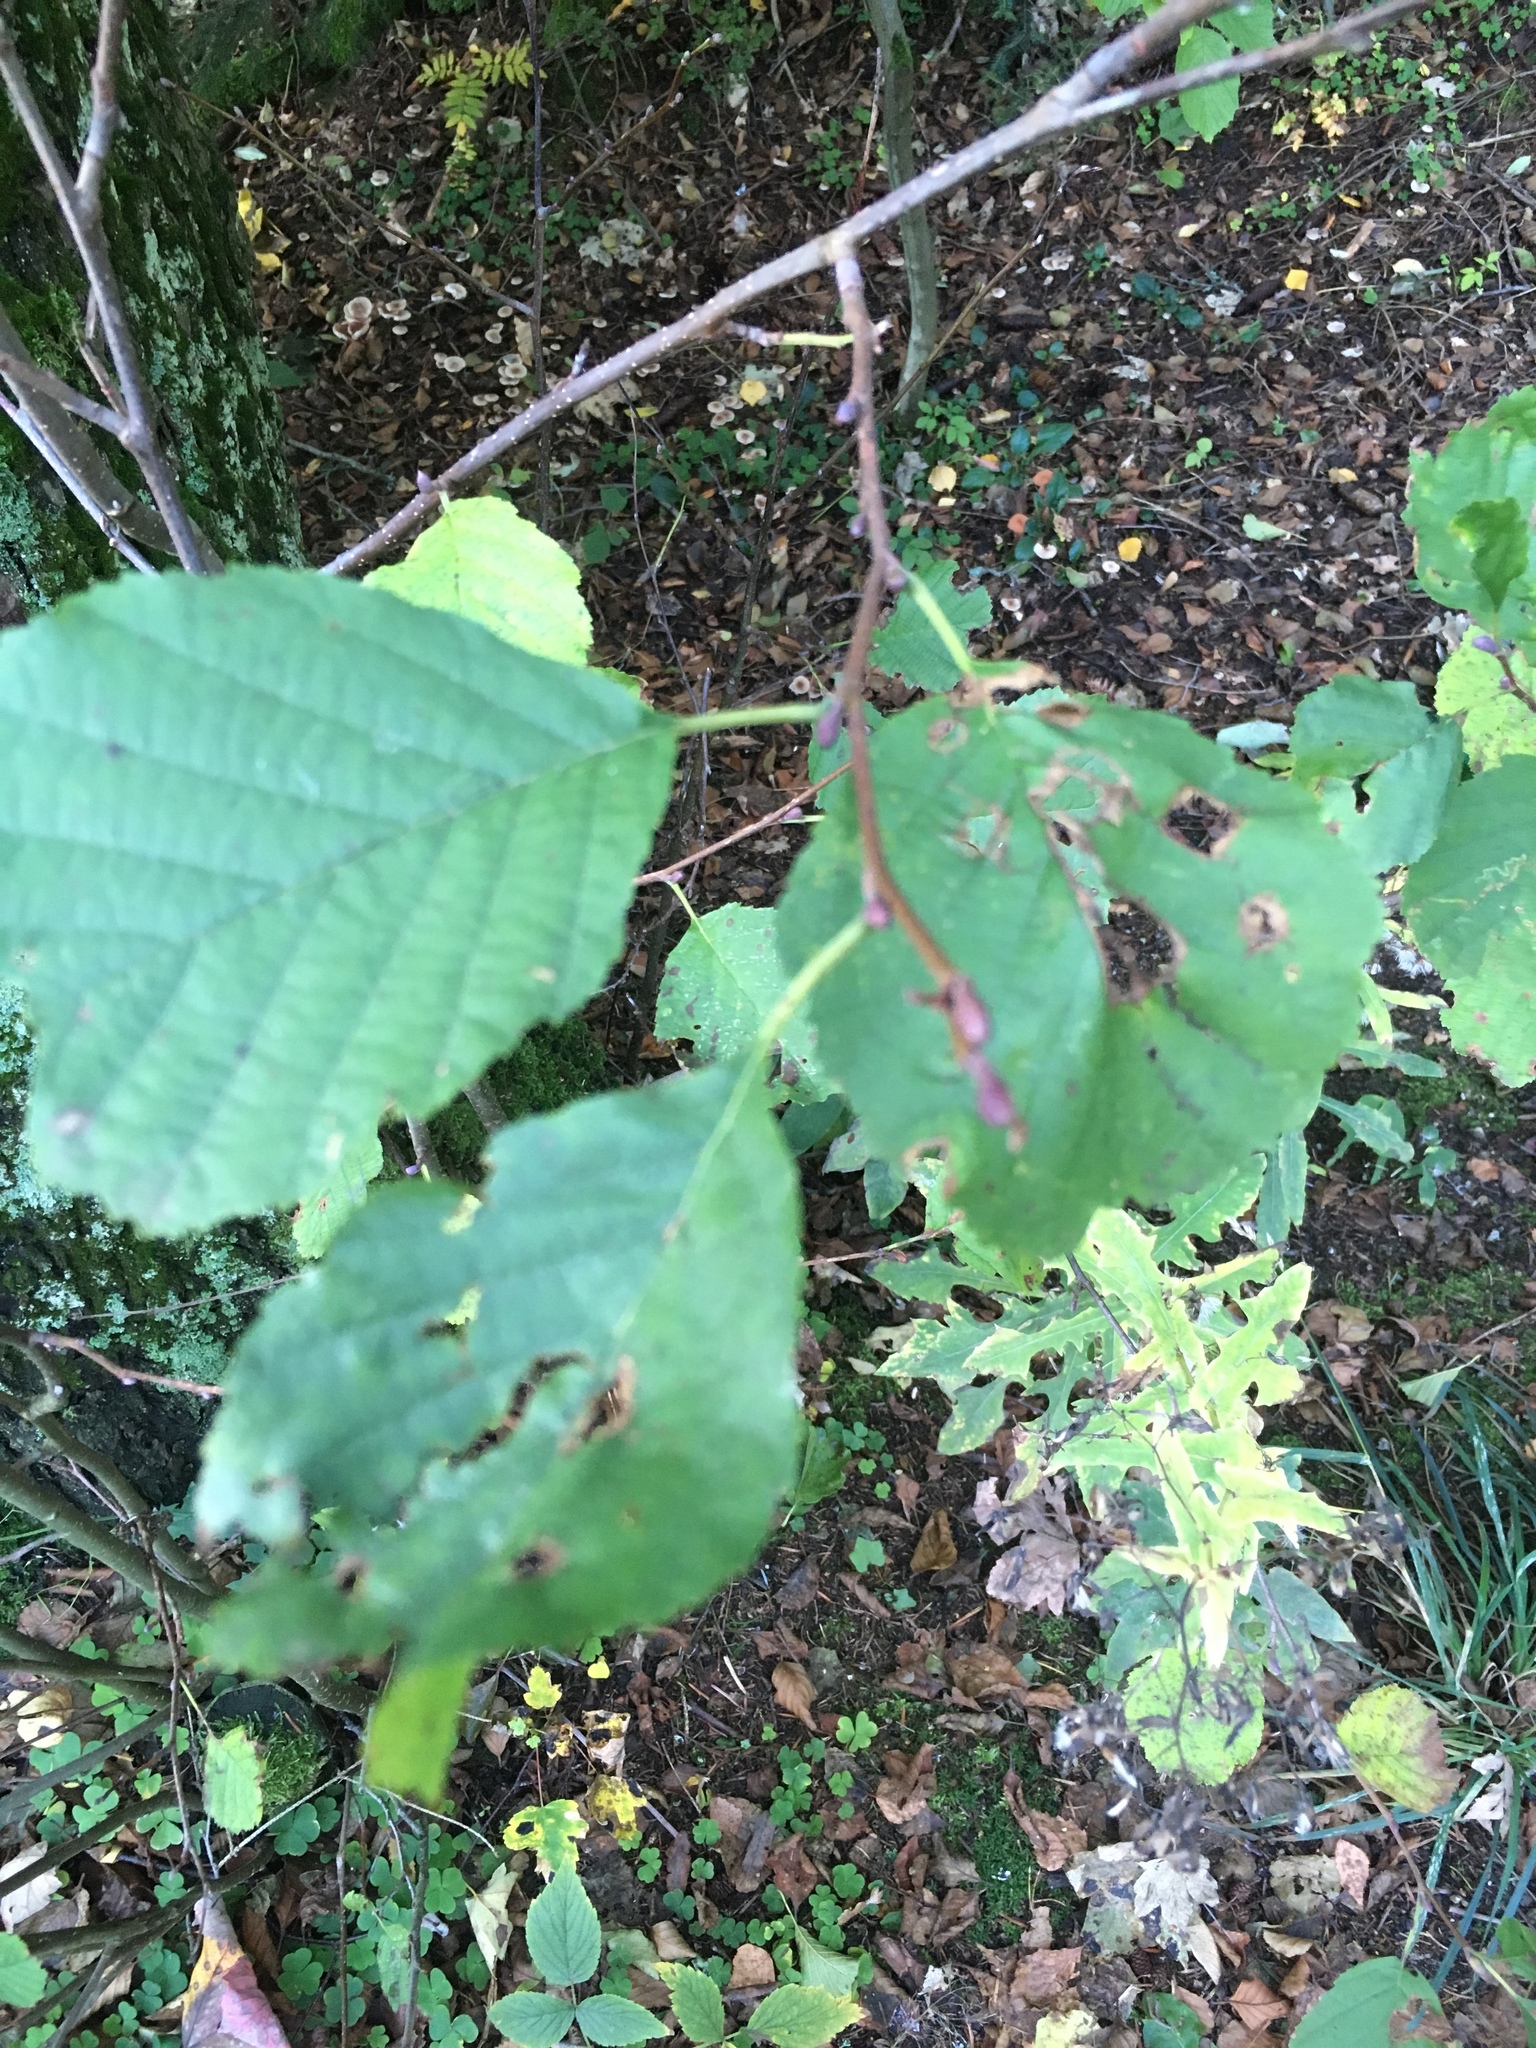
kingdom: Plantae
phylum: Tracheophyta
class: Magnoliopsida
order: Fagales
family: Betulaceae
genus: Corylus
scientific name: Corylus avellana
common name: European hazel
